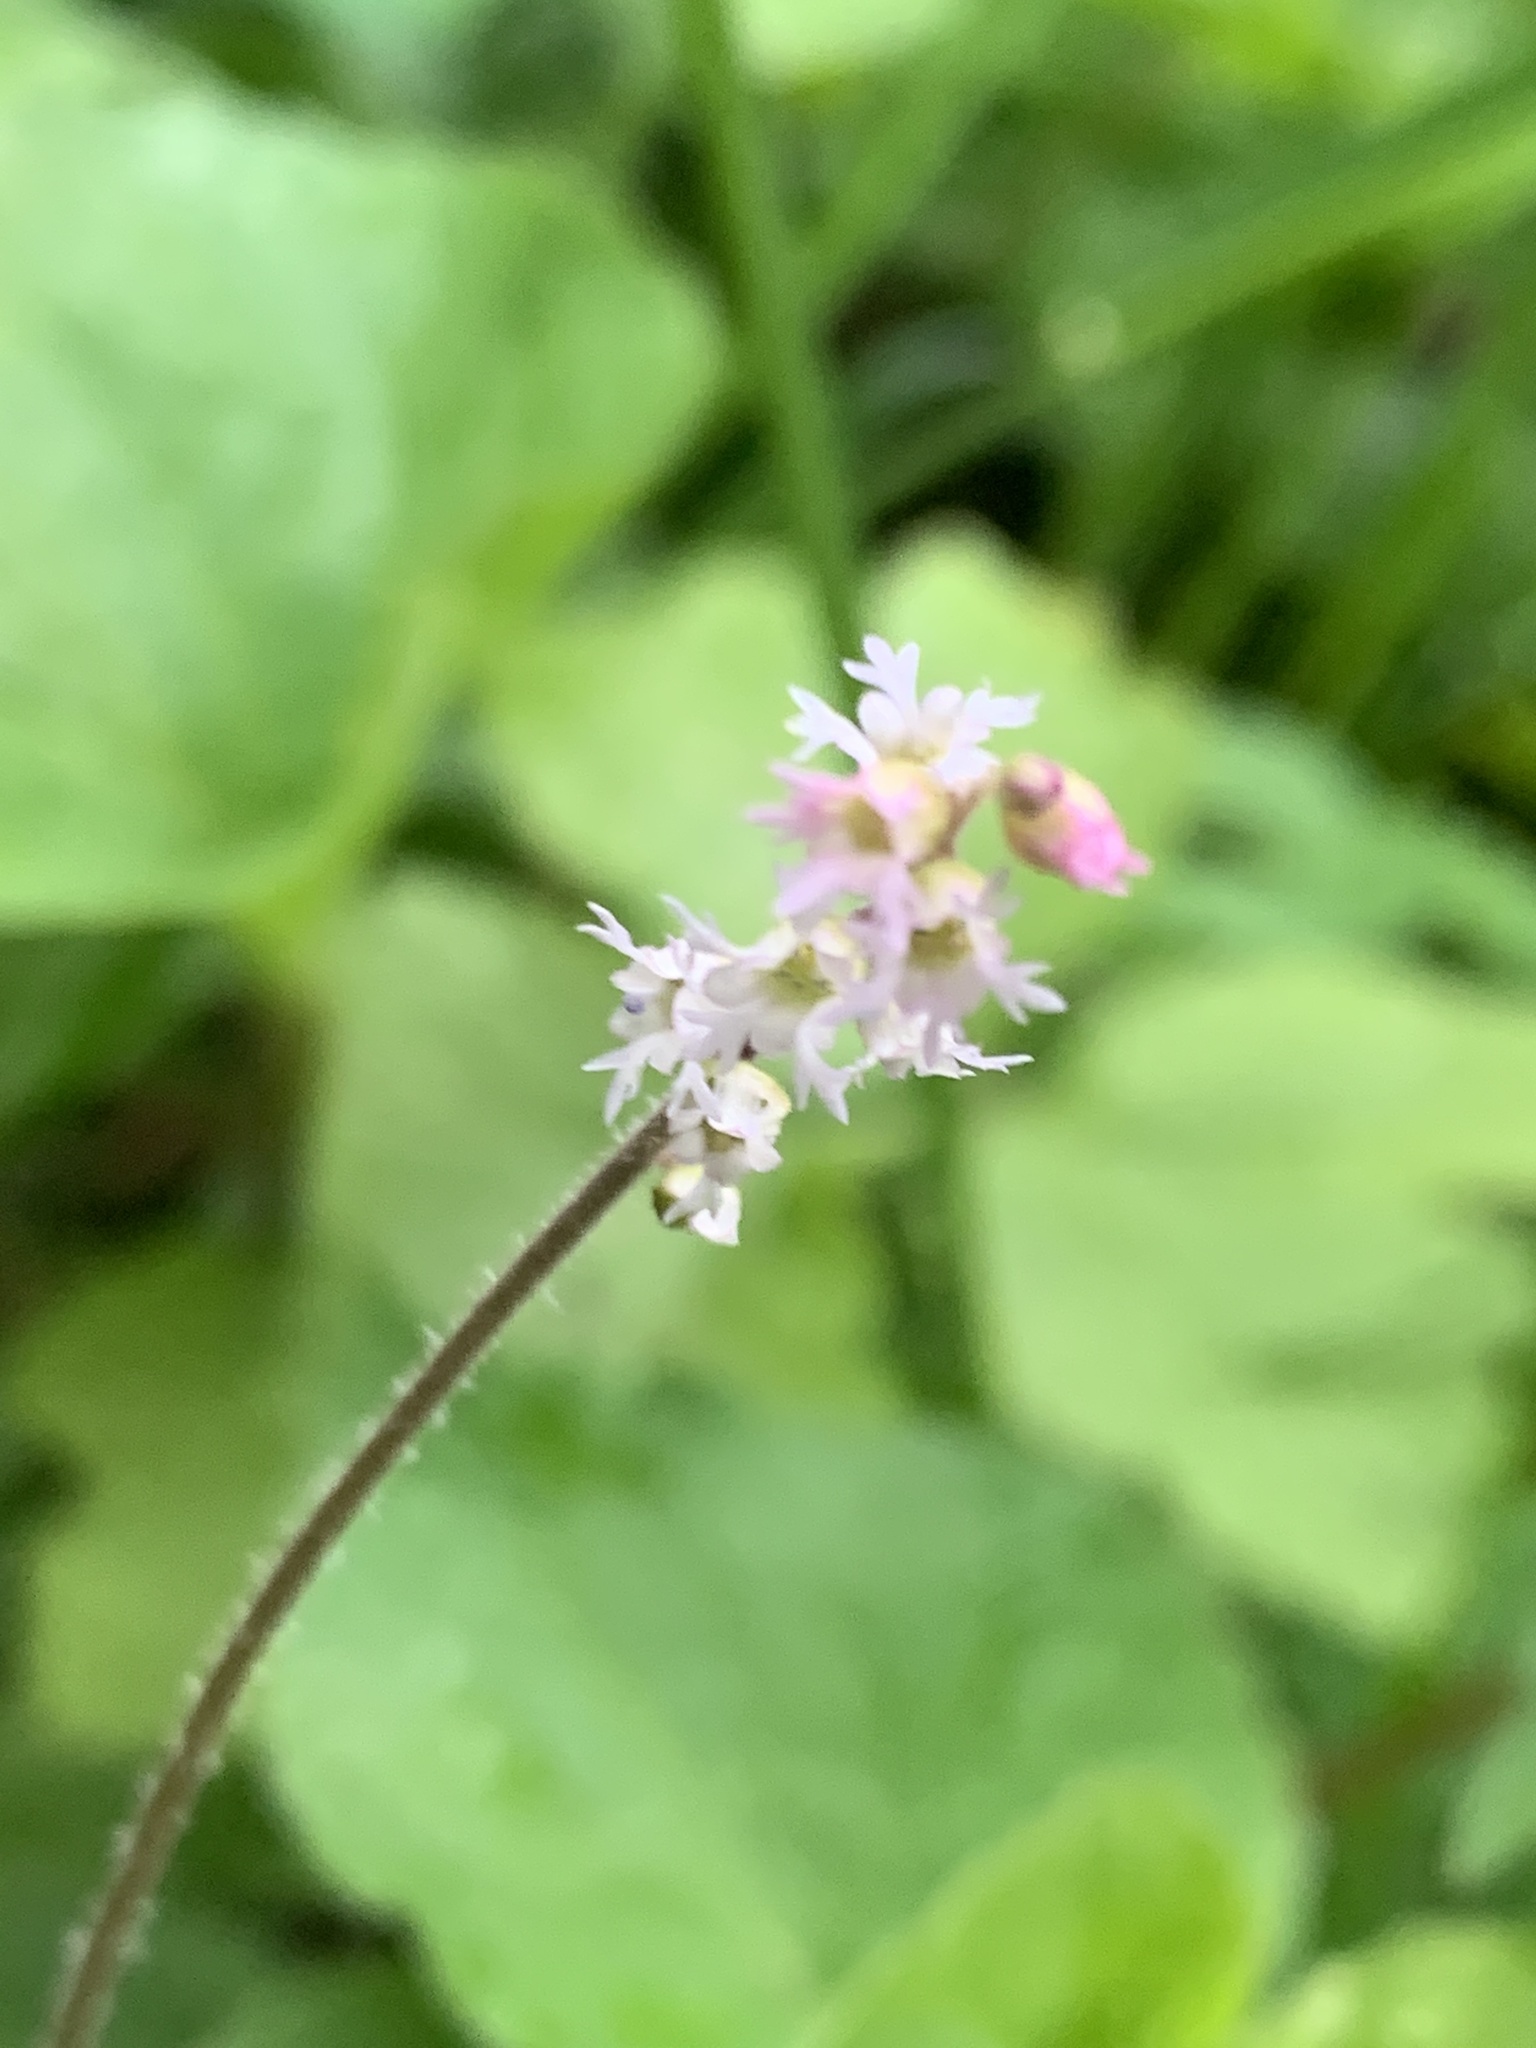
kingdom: Plantae
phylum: Tracheophyta
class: Magnoliopsida
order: Saxifragales
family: Saxifragaceae
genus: Ozomelis
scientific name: Ozomelis trifida
